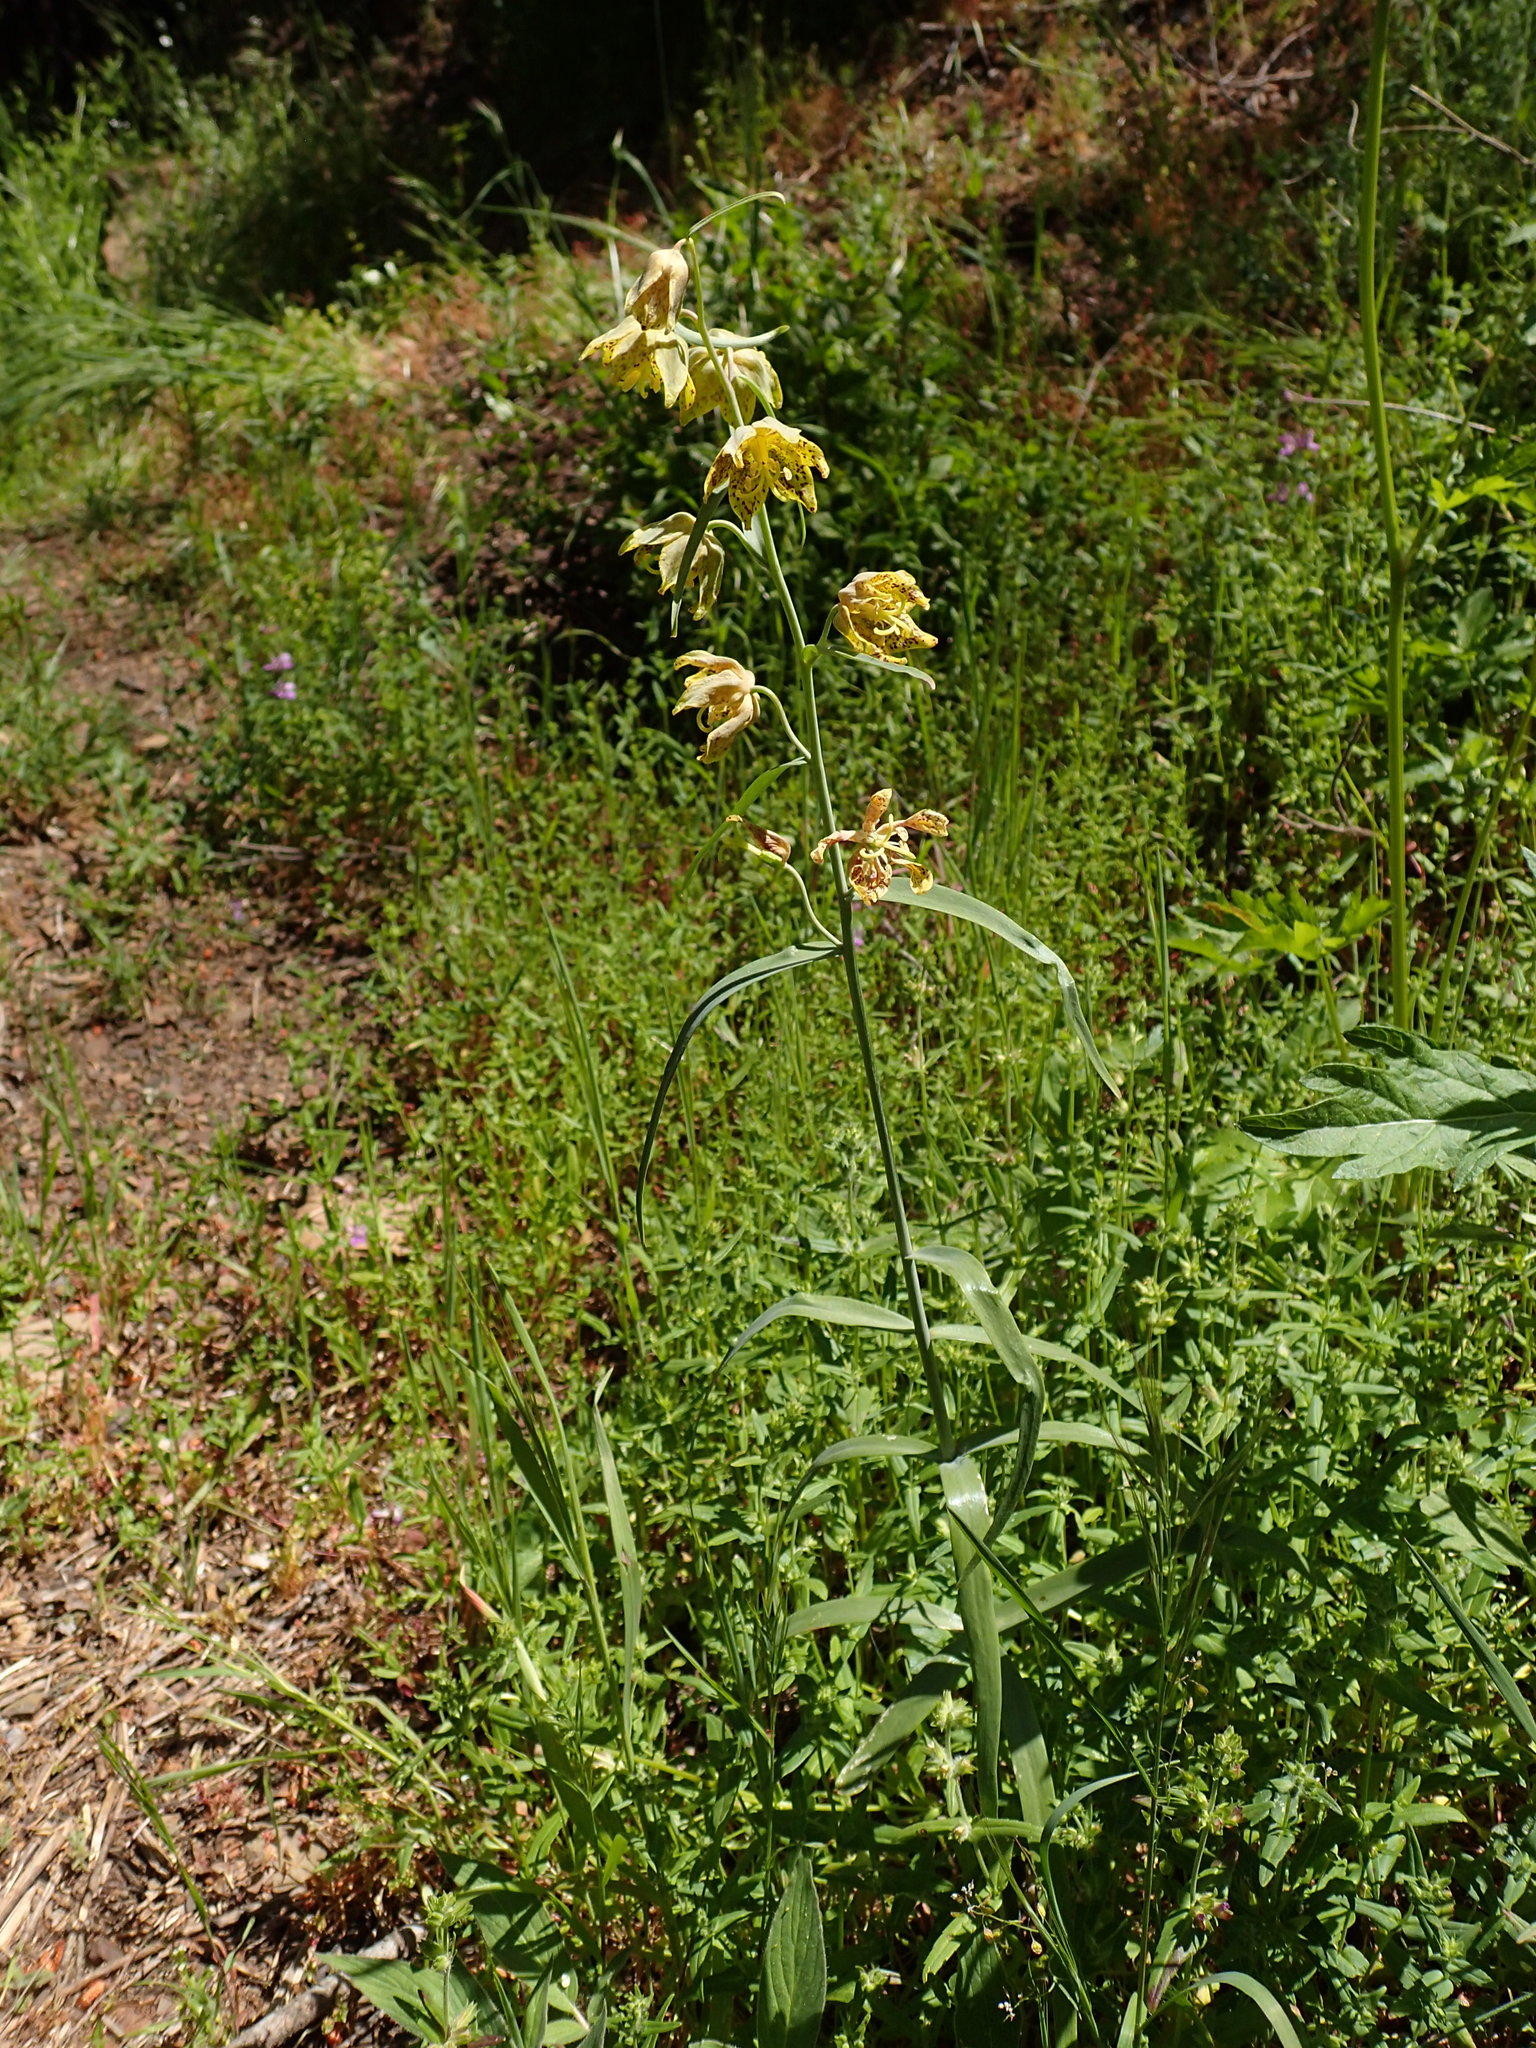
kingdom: Plantae
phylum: Tracheophyta
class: Liliopsida
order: Liliales
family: Liliaceae
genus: Fritillaria
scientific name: Fritillaria ojaiensis
